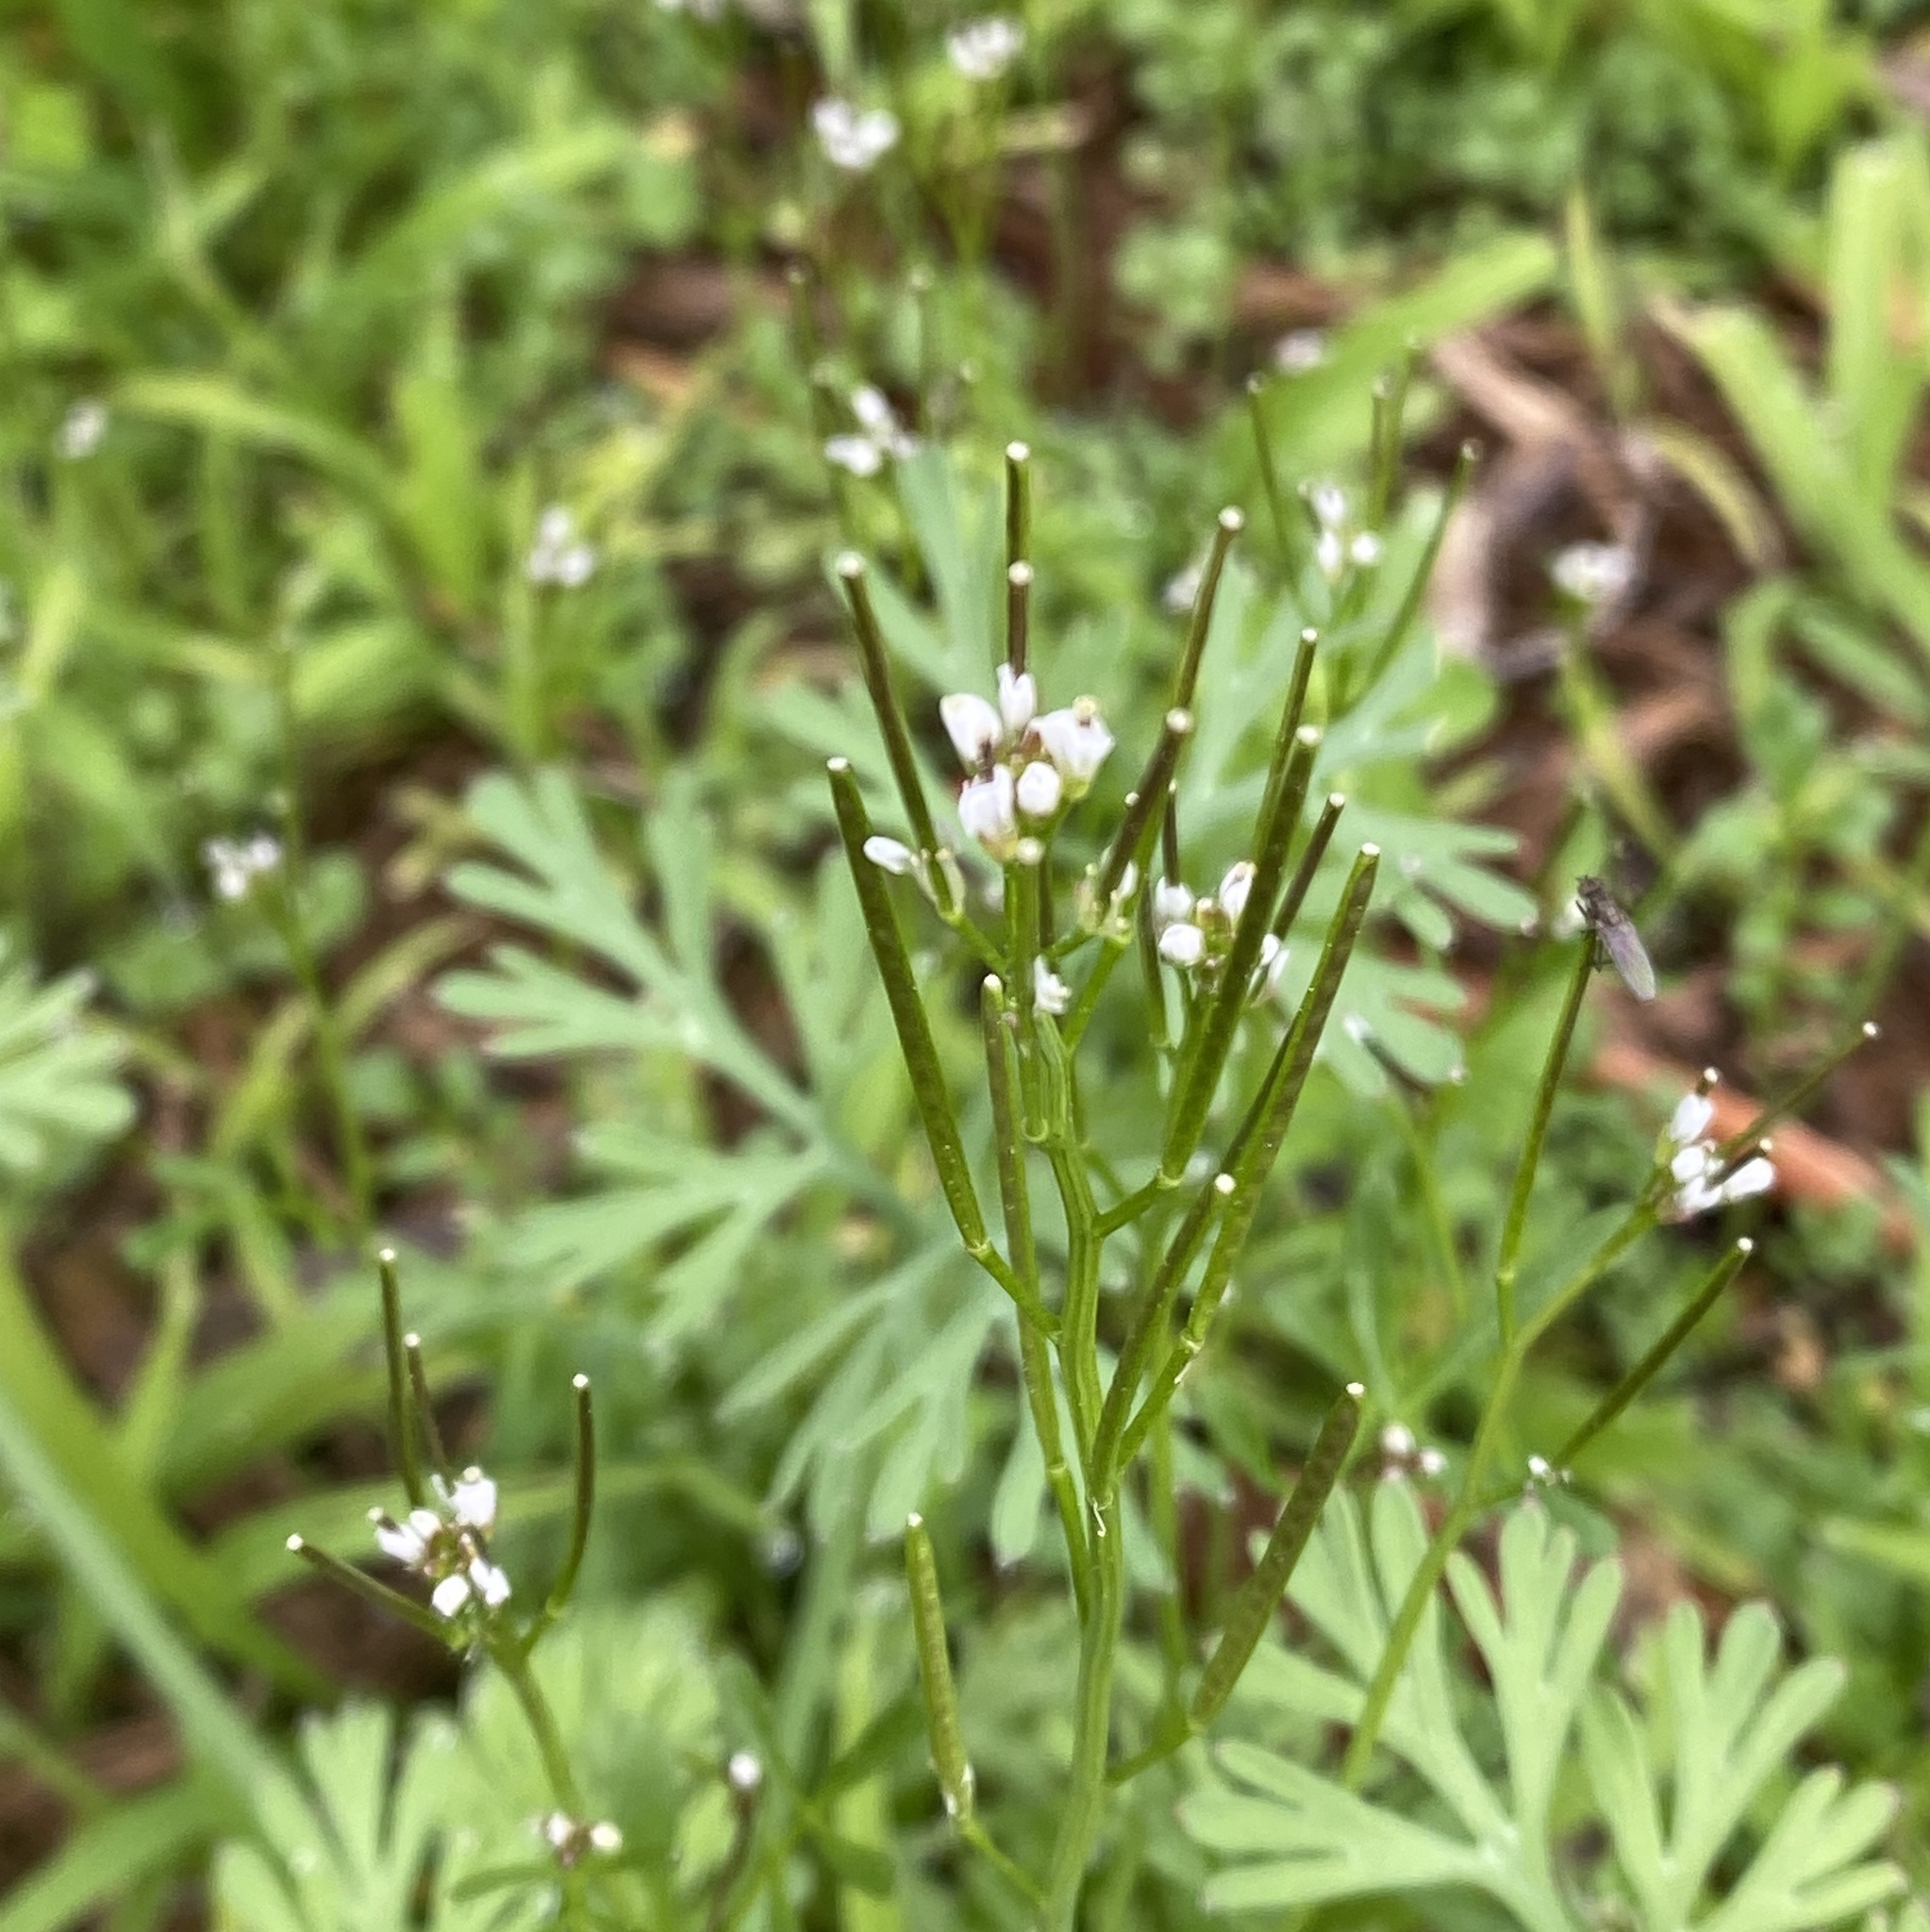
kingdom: Plantae
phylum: Tracheophyta
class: Magnoliopsida
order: Brassicales
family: Brassicaceae
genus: Cardamine
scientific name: Cardamine hirsuta
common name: Hairy bittercress
